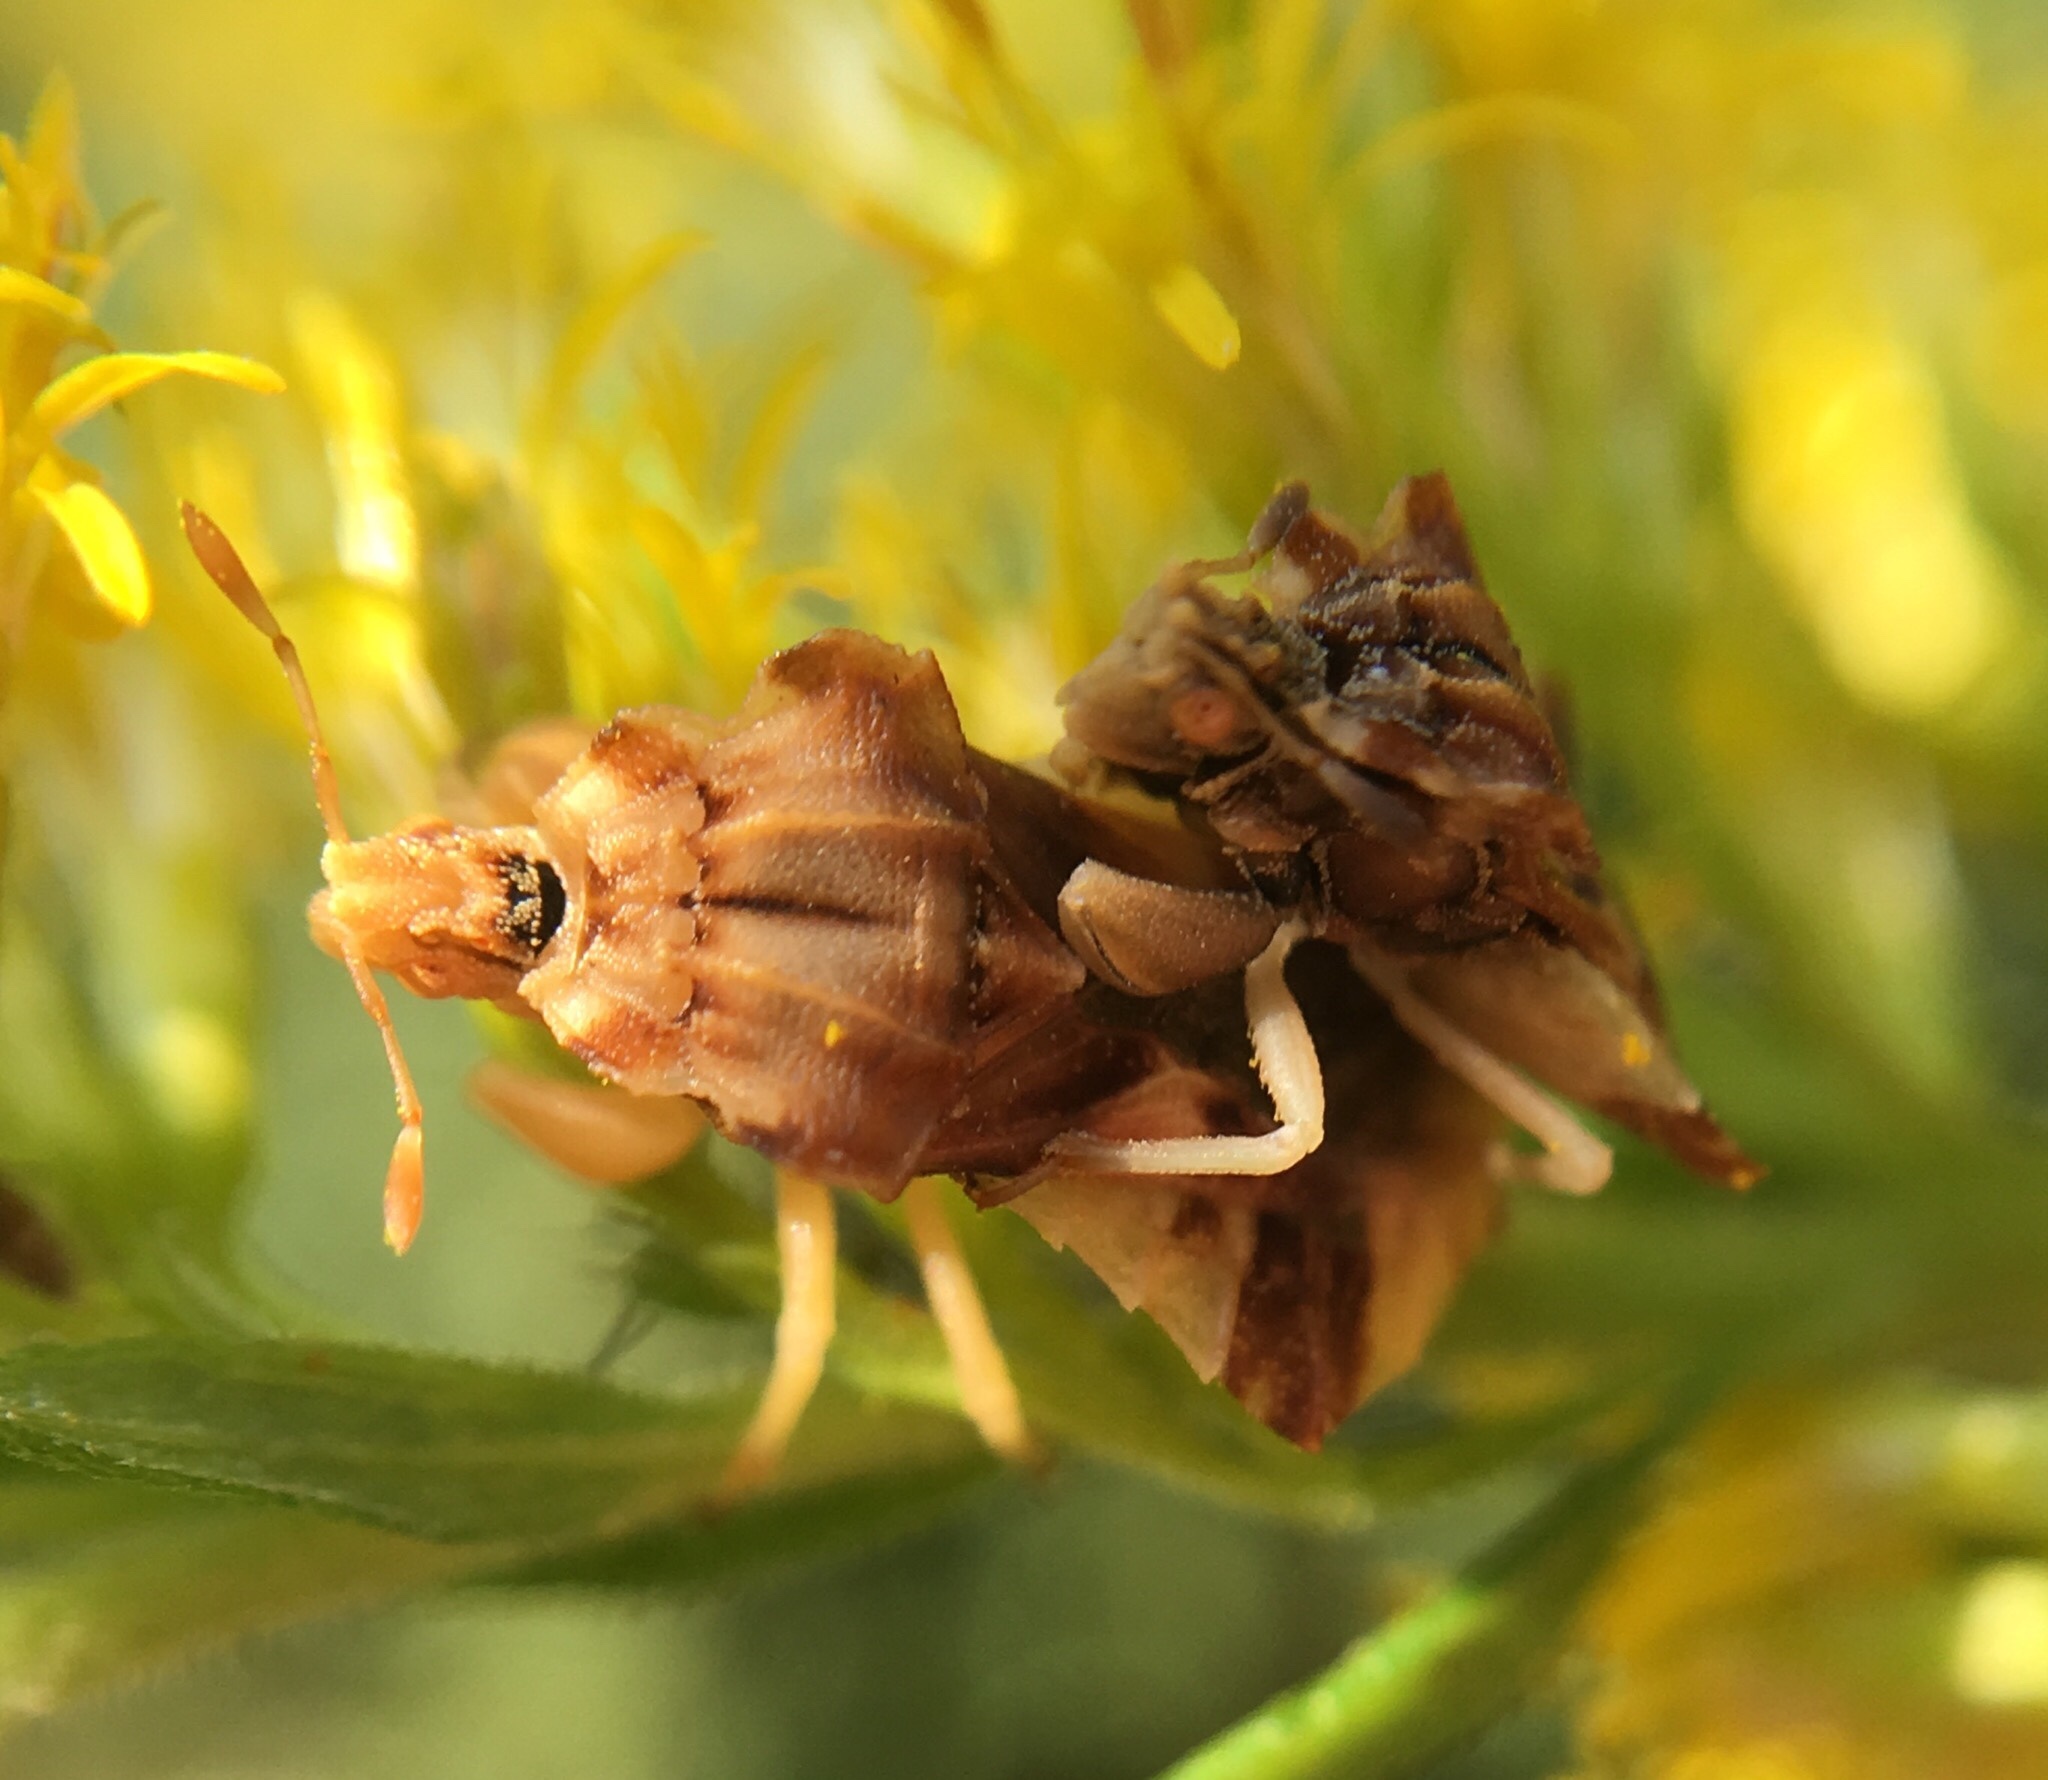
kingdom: Animalia
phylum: Arthropoda
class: Insecta
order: Hemiptera
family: Reduviidae
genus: Phymata
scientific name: Phymata fasciata
